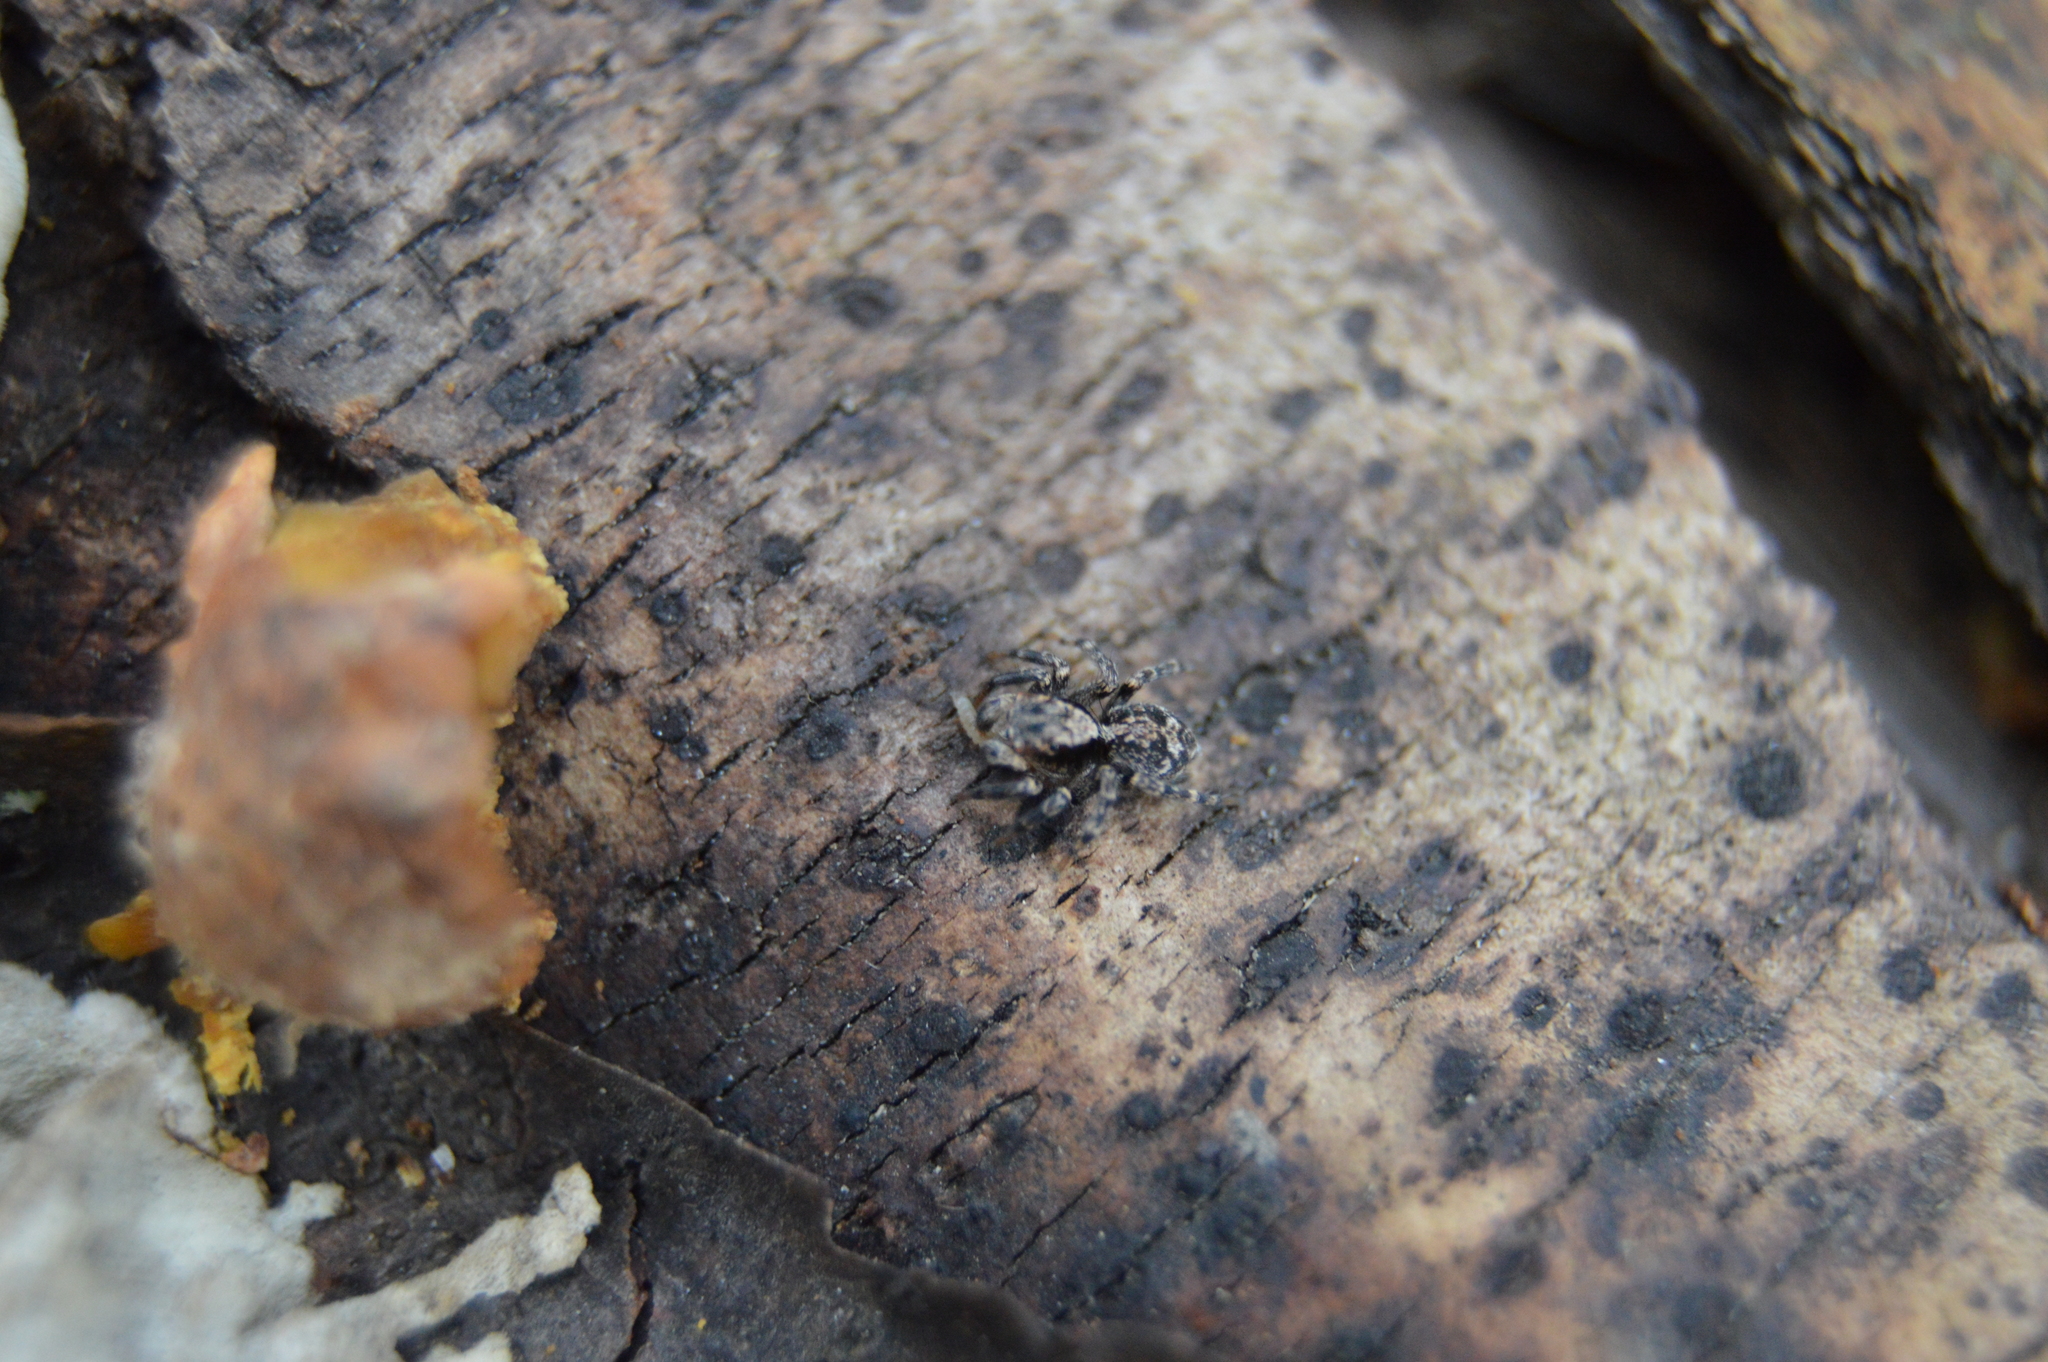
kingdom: Animalia
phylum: Arthropoda
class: Arachnida
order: Araneae
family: Salticidae
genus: Naphrys
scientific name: Naphrys pulex
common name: Flea jumping spider
